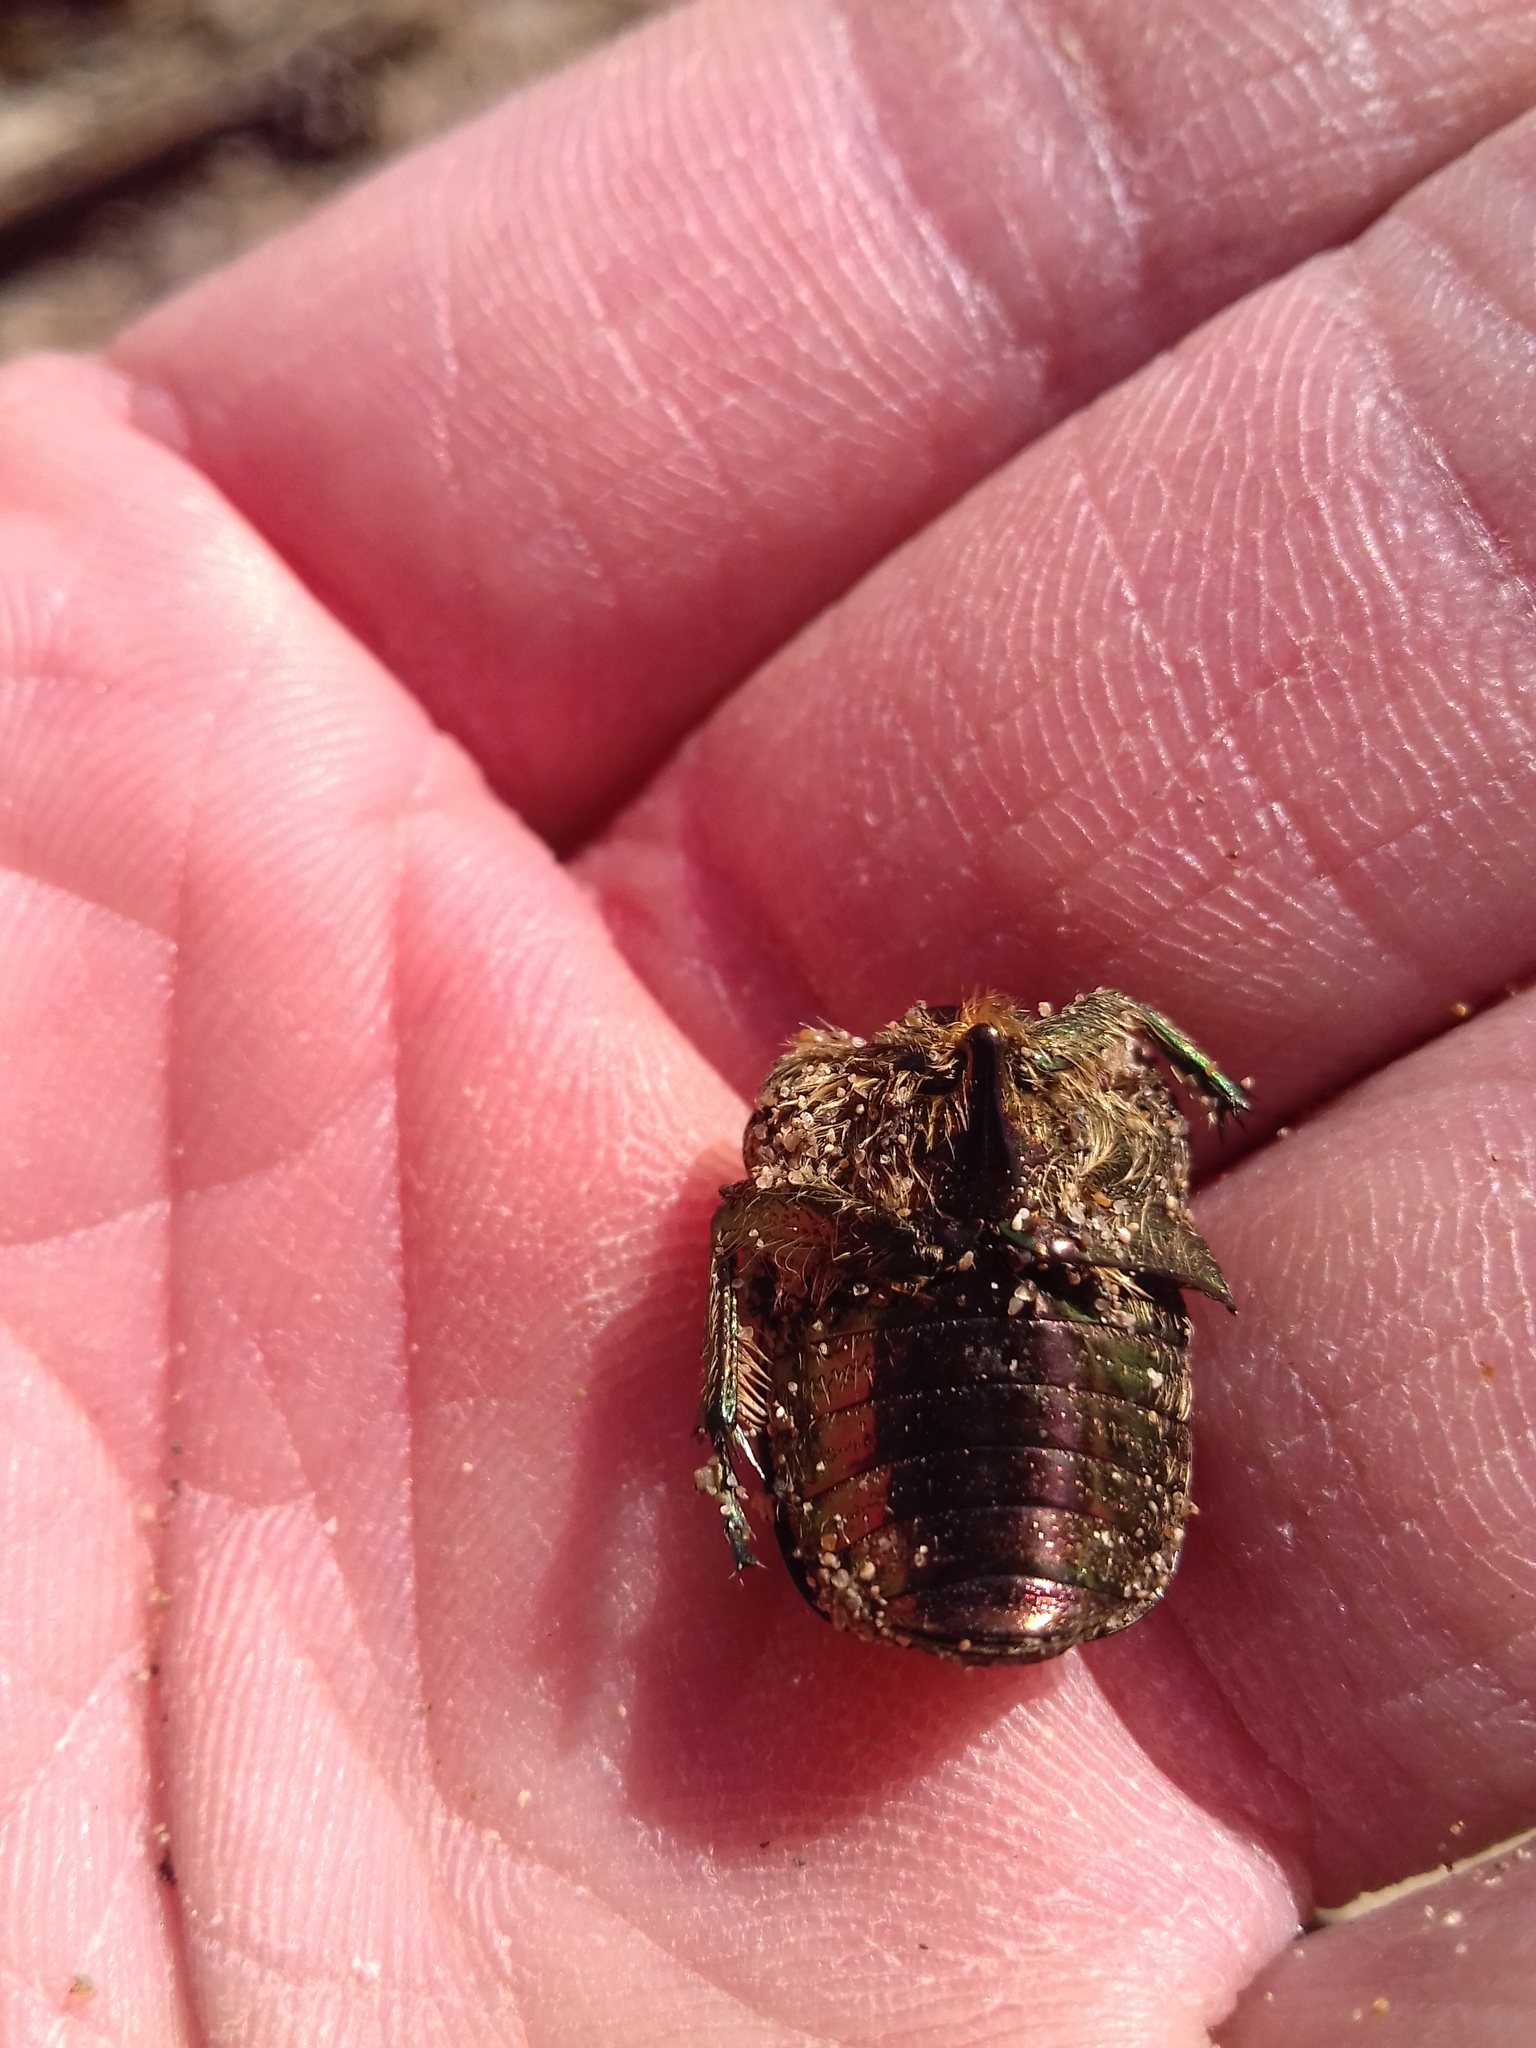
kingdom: Animalia
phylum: Arthropoda
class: Insecta
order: Coleoptera
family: Scarabaeidae
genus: Cetonia
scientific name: Cetonia aurata
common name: Rose chafer
